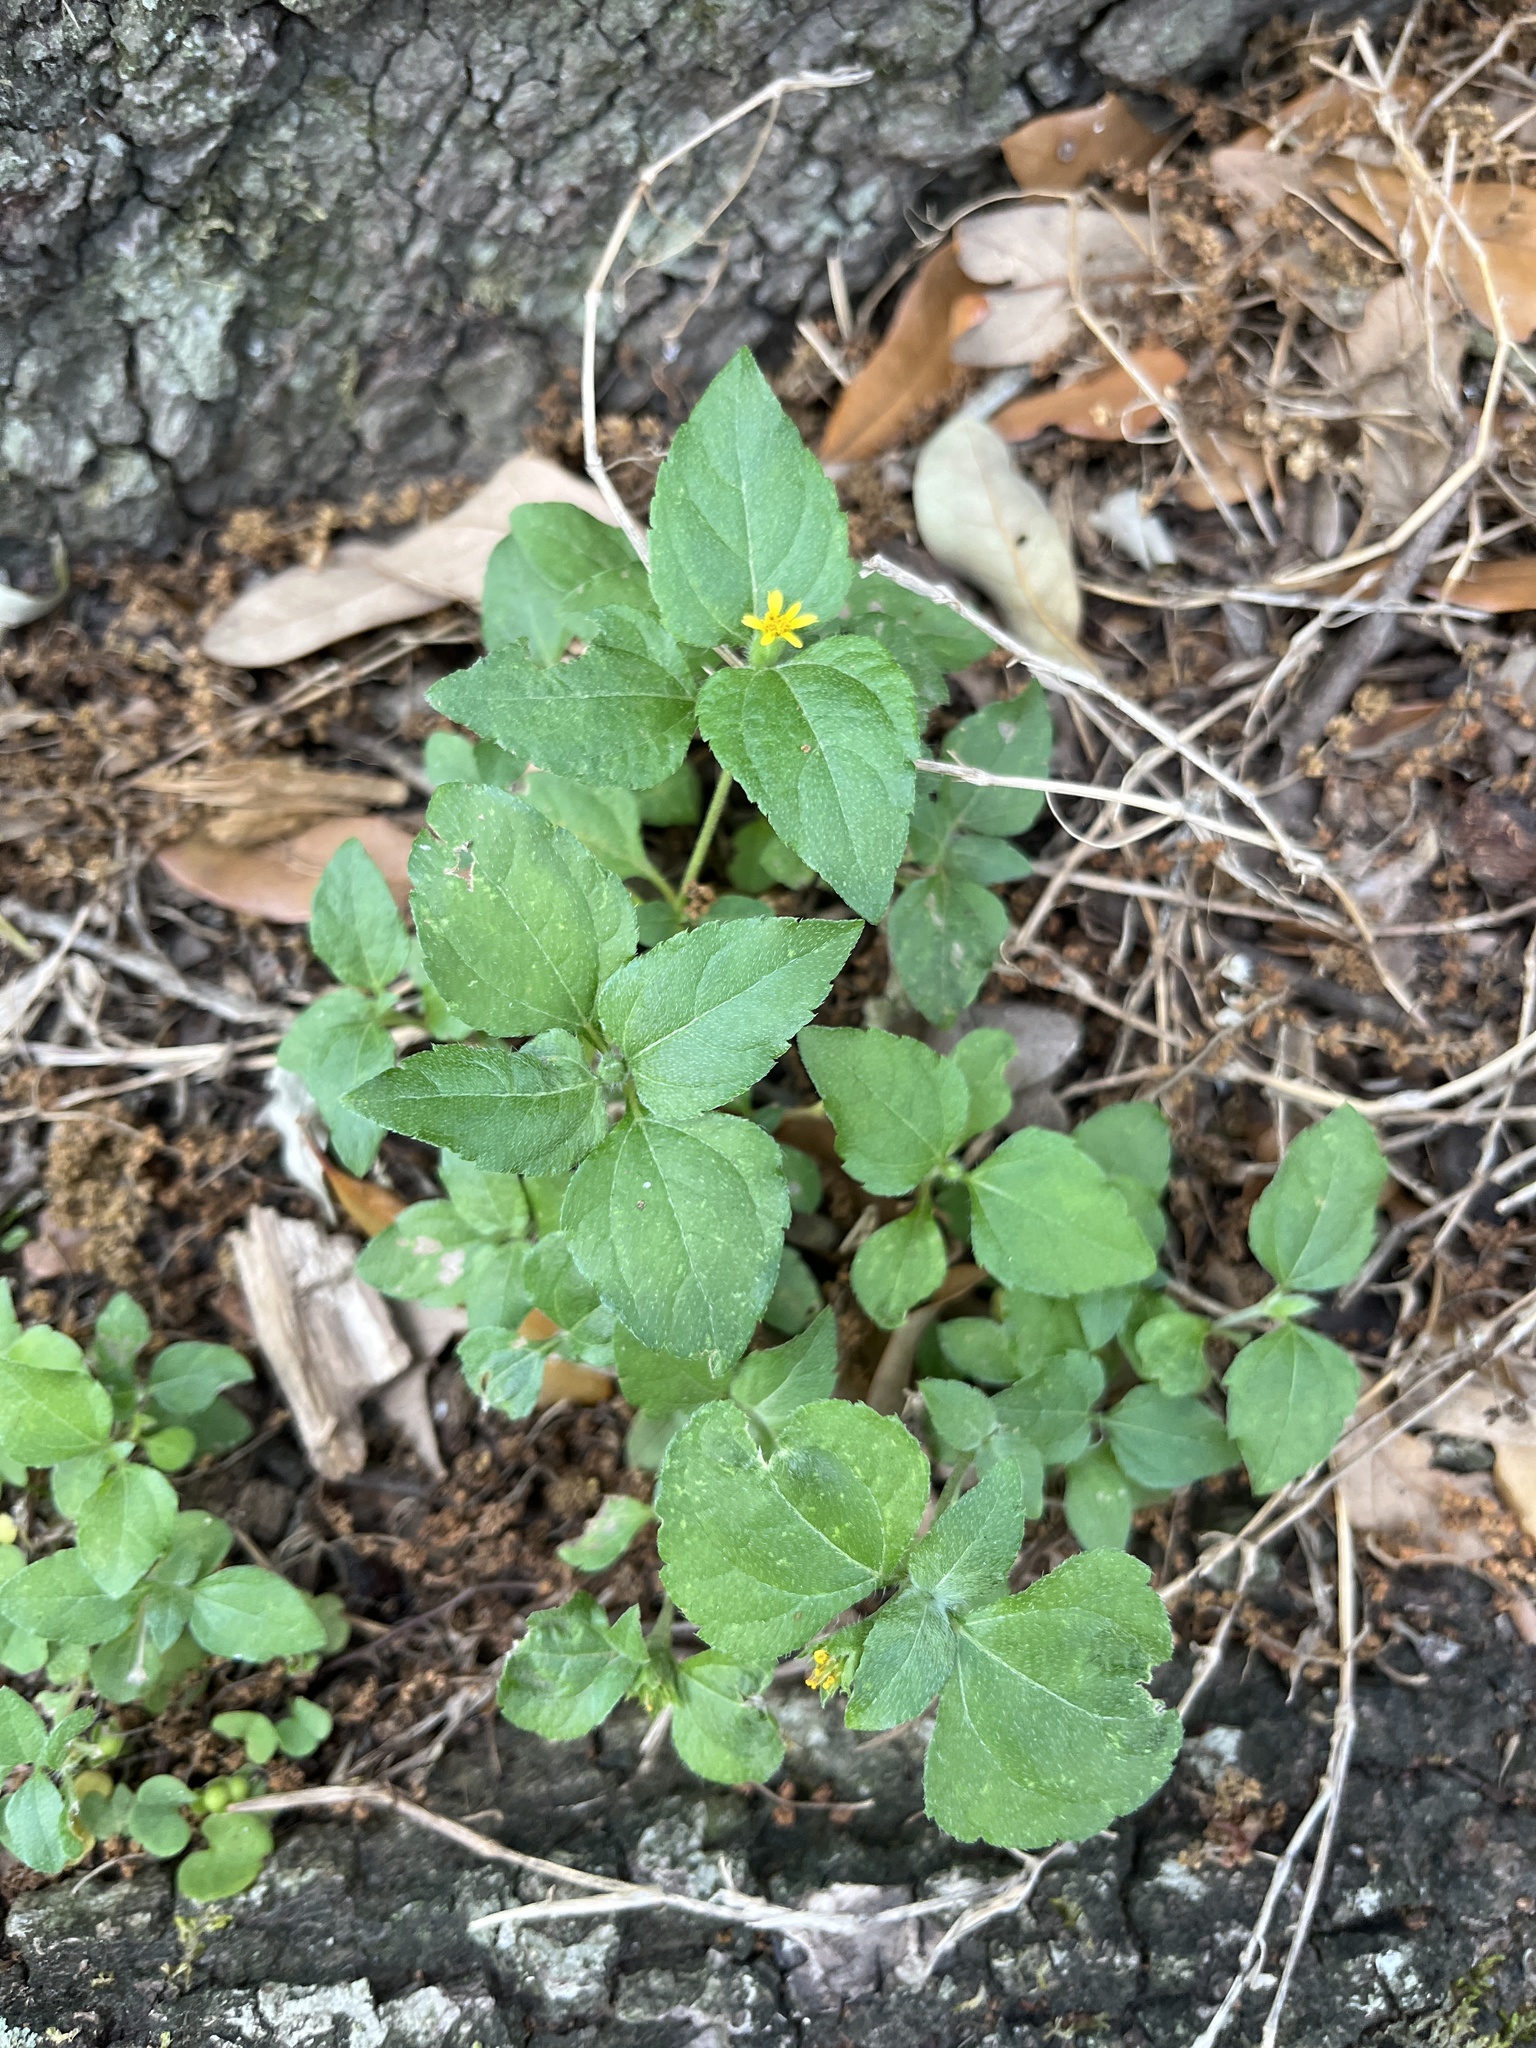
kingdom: Plantae
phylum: Tracheophyta
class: Magnoliopsida
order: Asterales
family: Asteraceae
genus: Calyptocarpus
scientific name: Calyptocarpus vialis
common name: Straggler daisy
